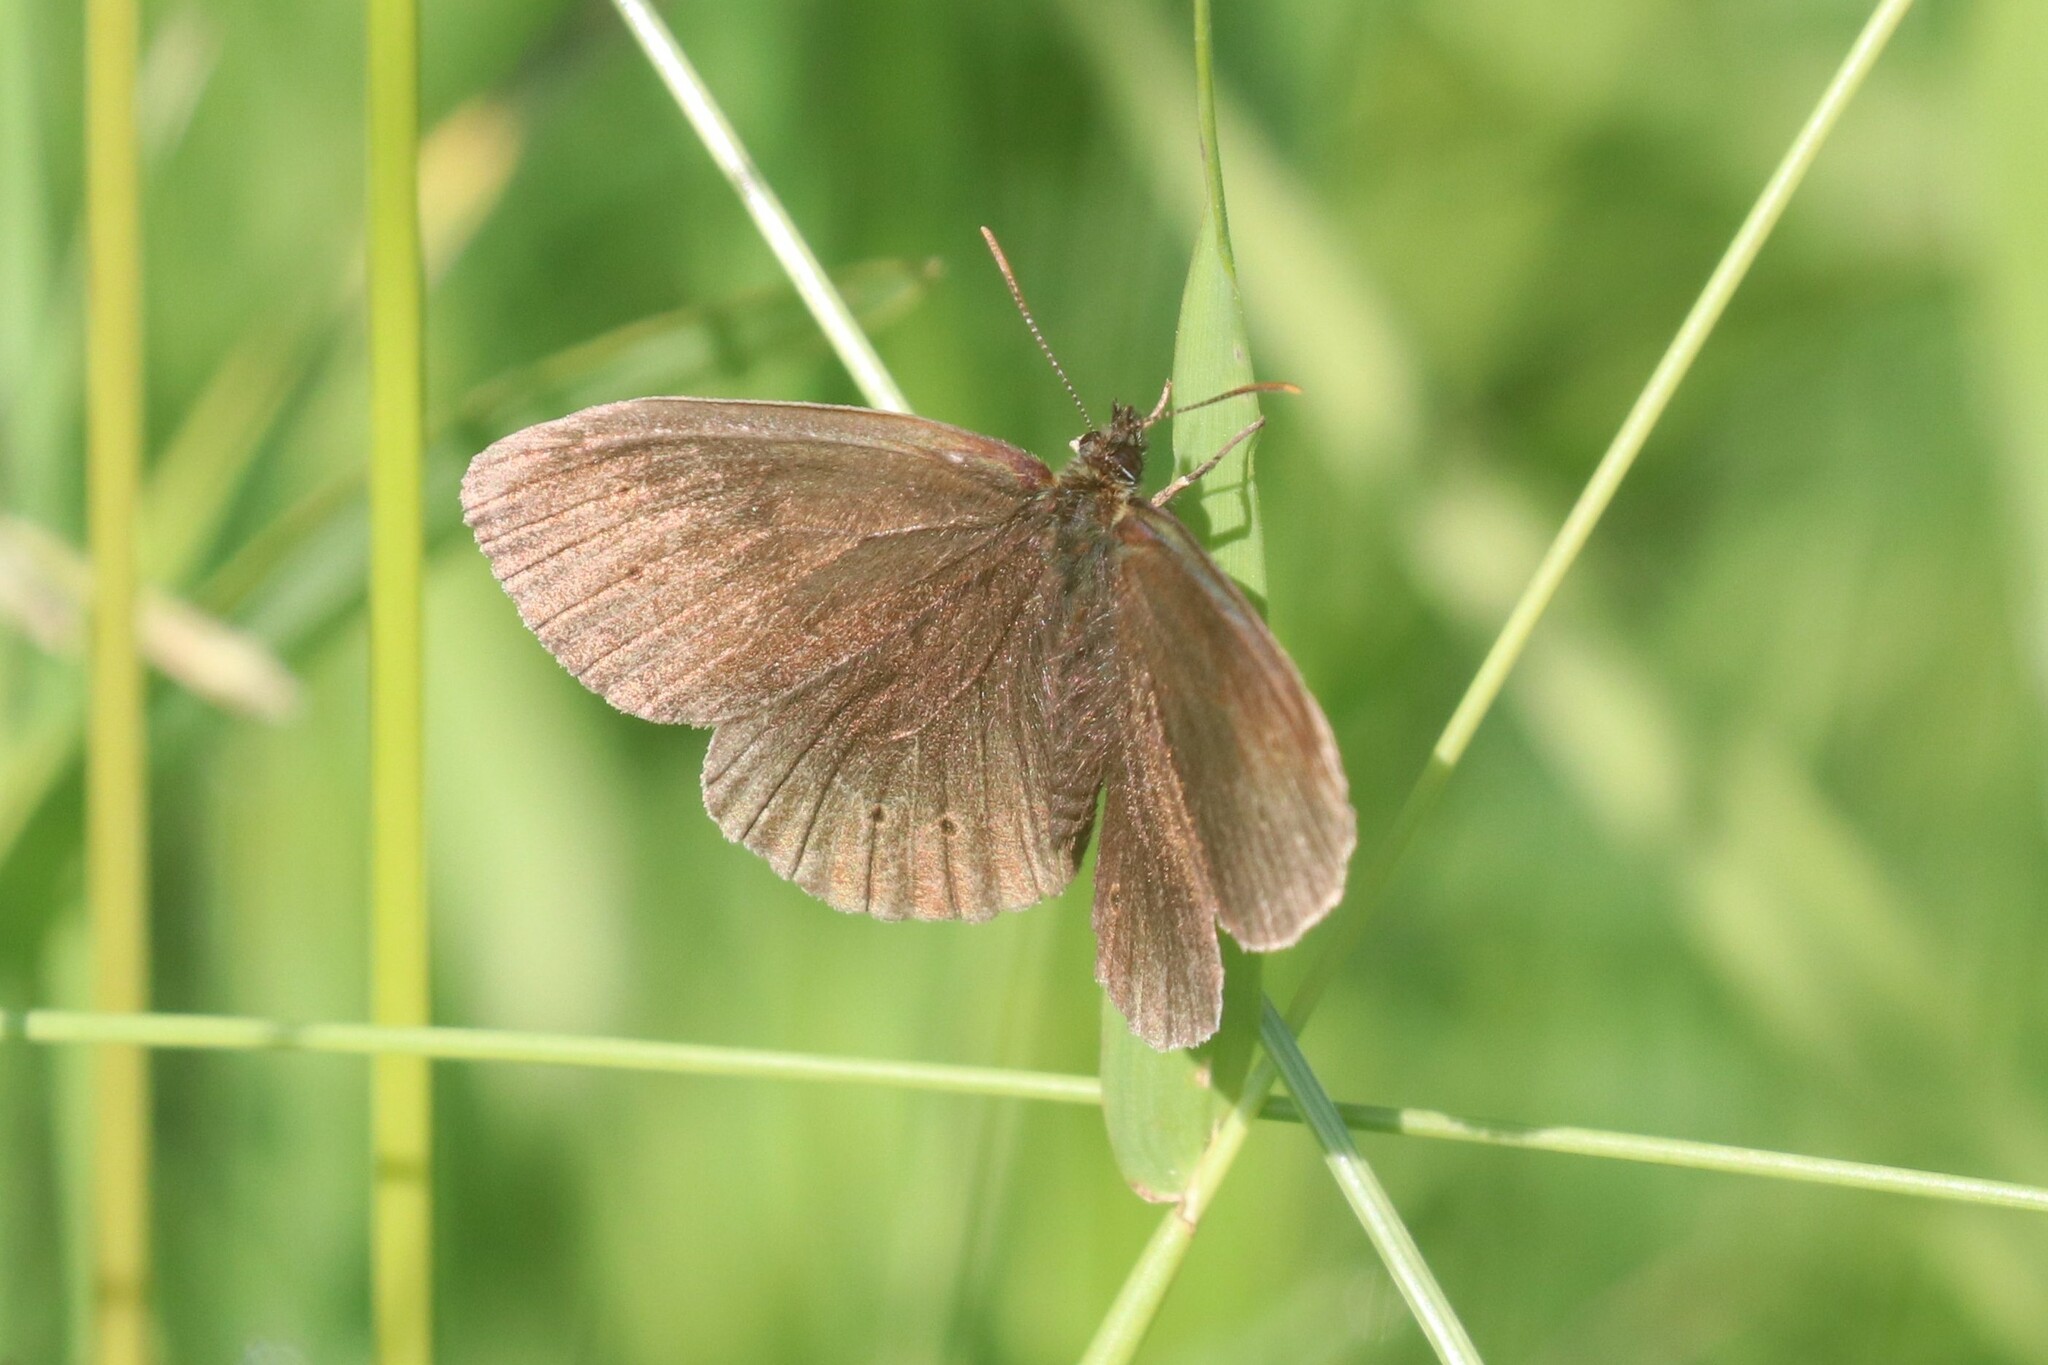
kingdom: Animalia
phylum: Arthropoda
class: Insecta
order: Lepidoptera
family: Nymphalidae
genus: Aphantopus
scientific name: Aphantopus hyperantus
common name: Ringlet
